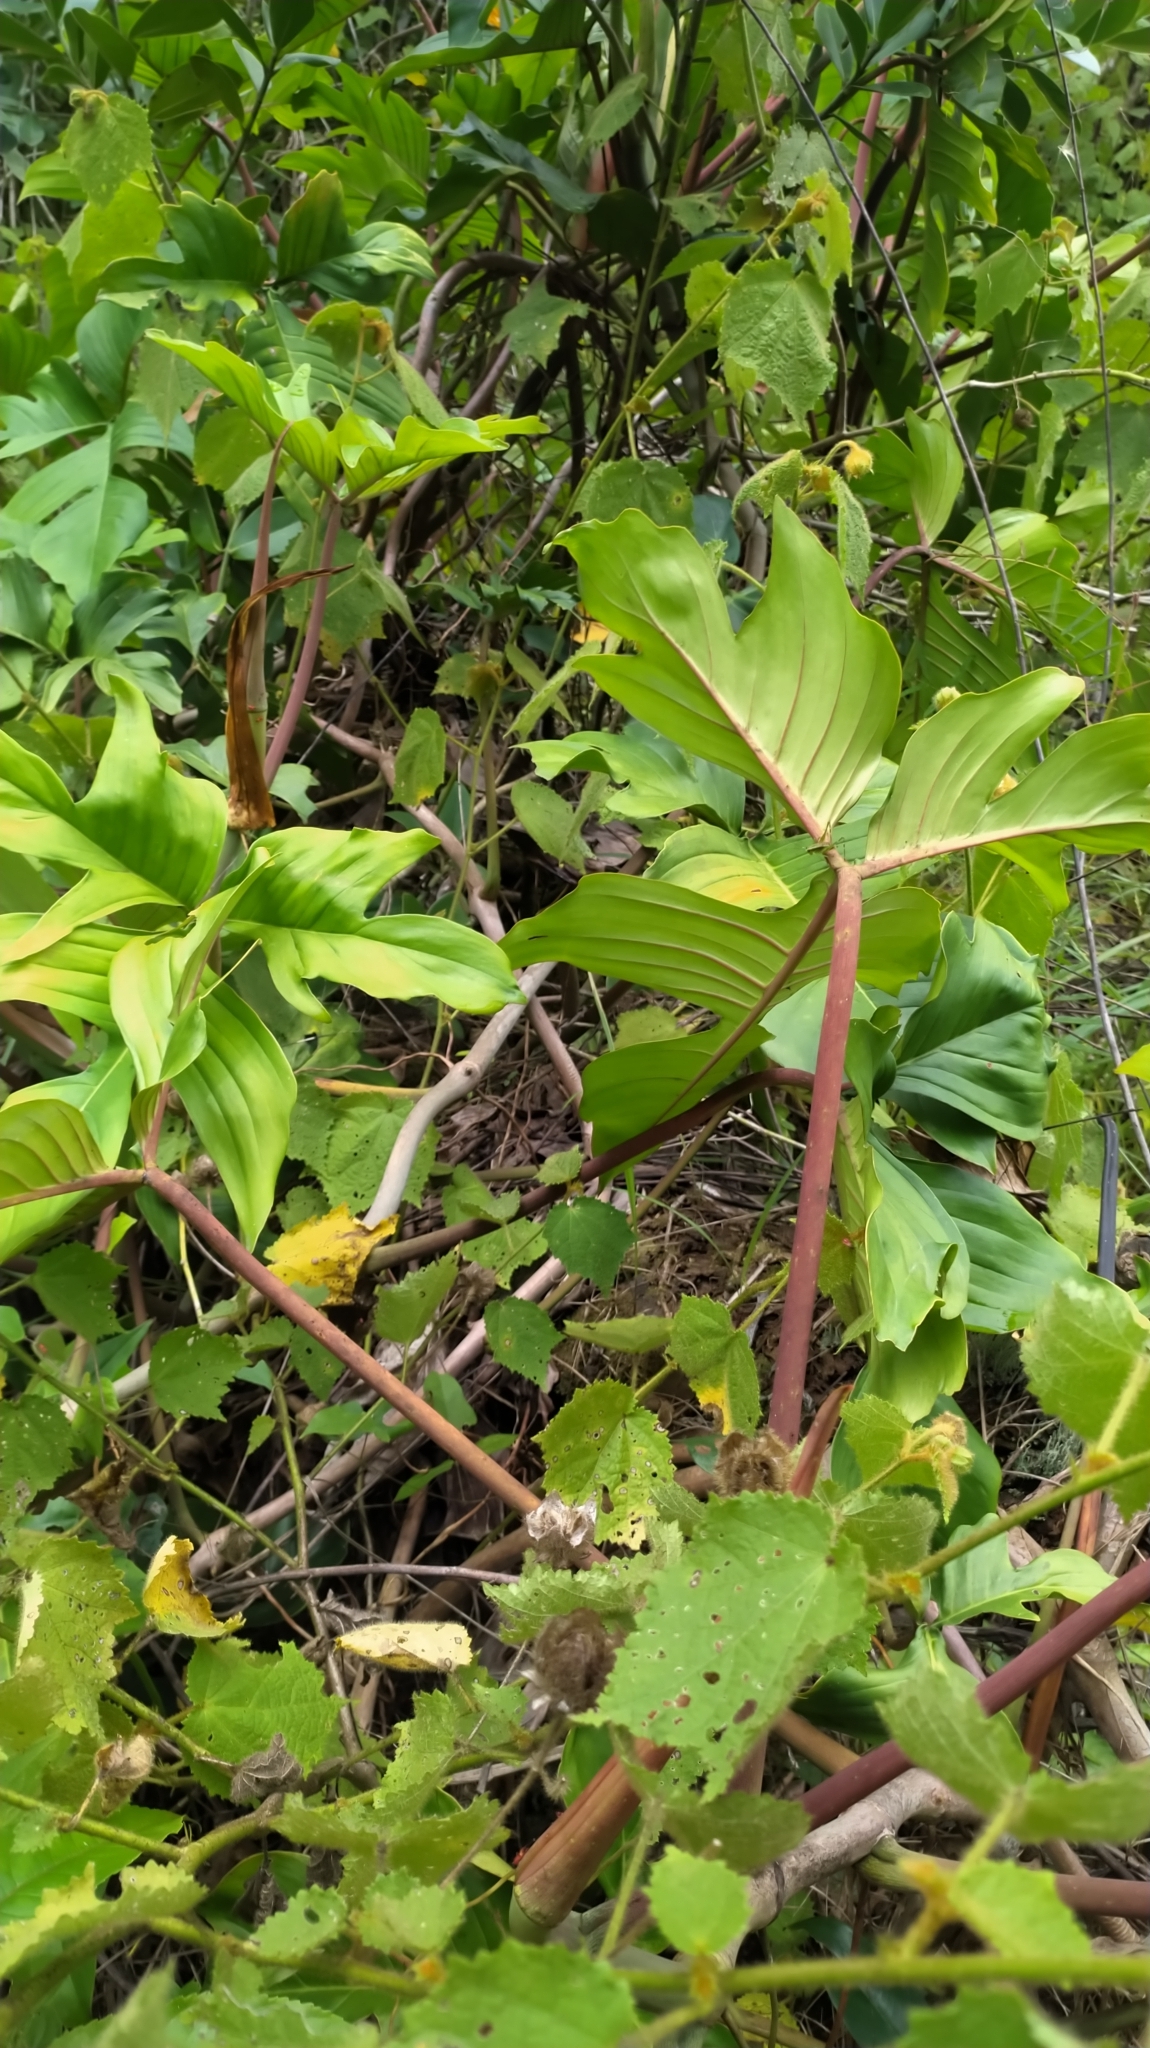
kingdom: Plantae
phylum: Tracheophyta
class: Liliopsida
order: Alismatales
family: Araceae
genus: Philodendron
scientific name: Philodendron pedatum
